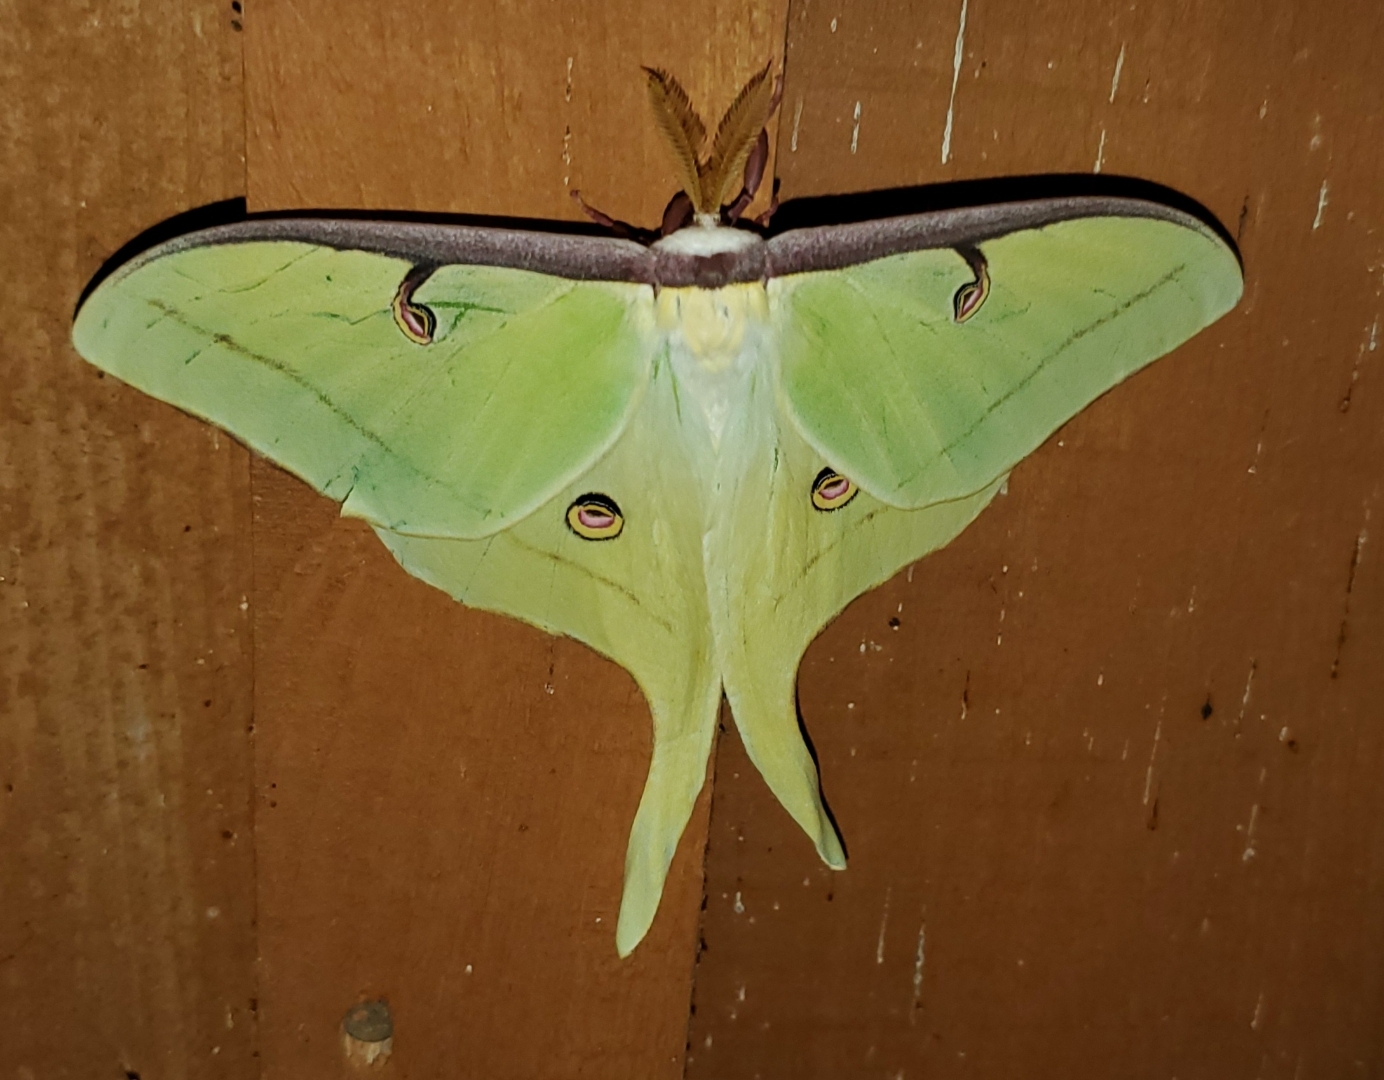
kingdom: Animalia
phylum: Arthropoda
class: Insecta
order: Lepidoptera
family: Saturniidae
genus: Actias
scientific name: Actias luna
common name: Luna moth
